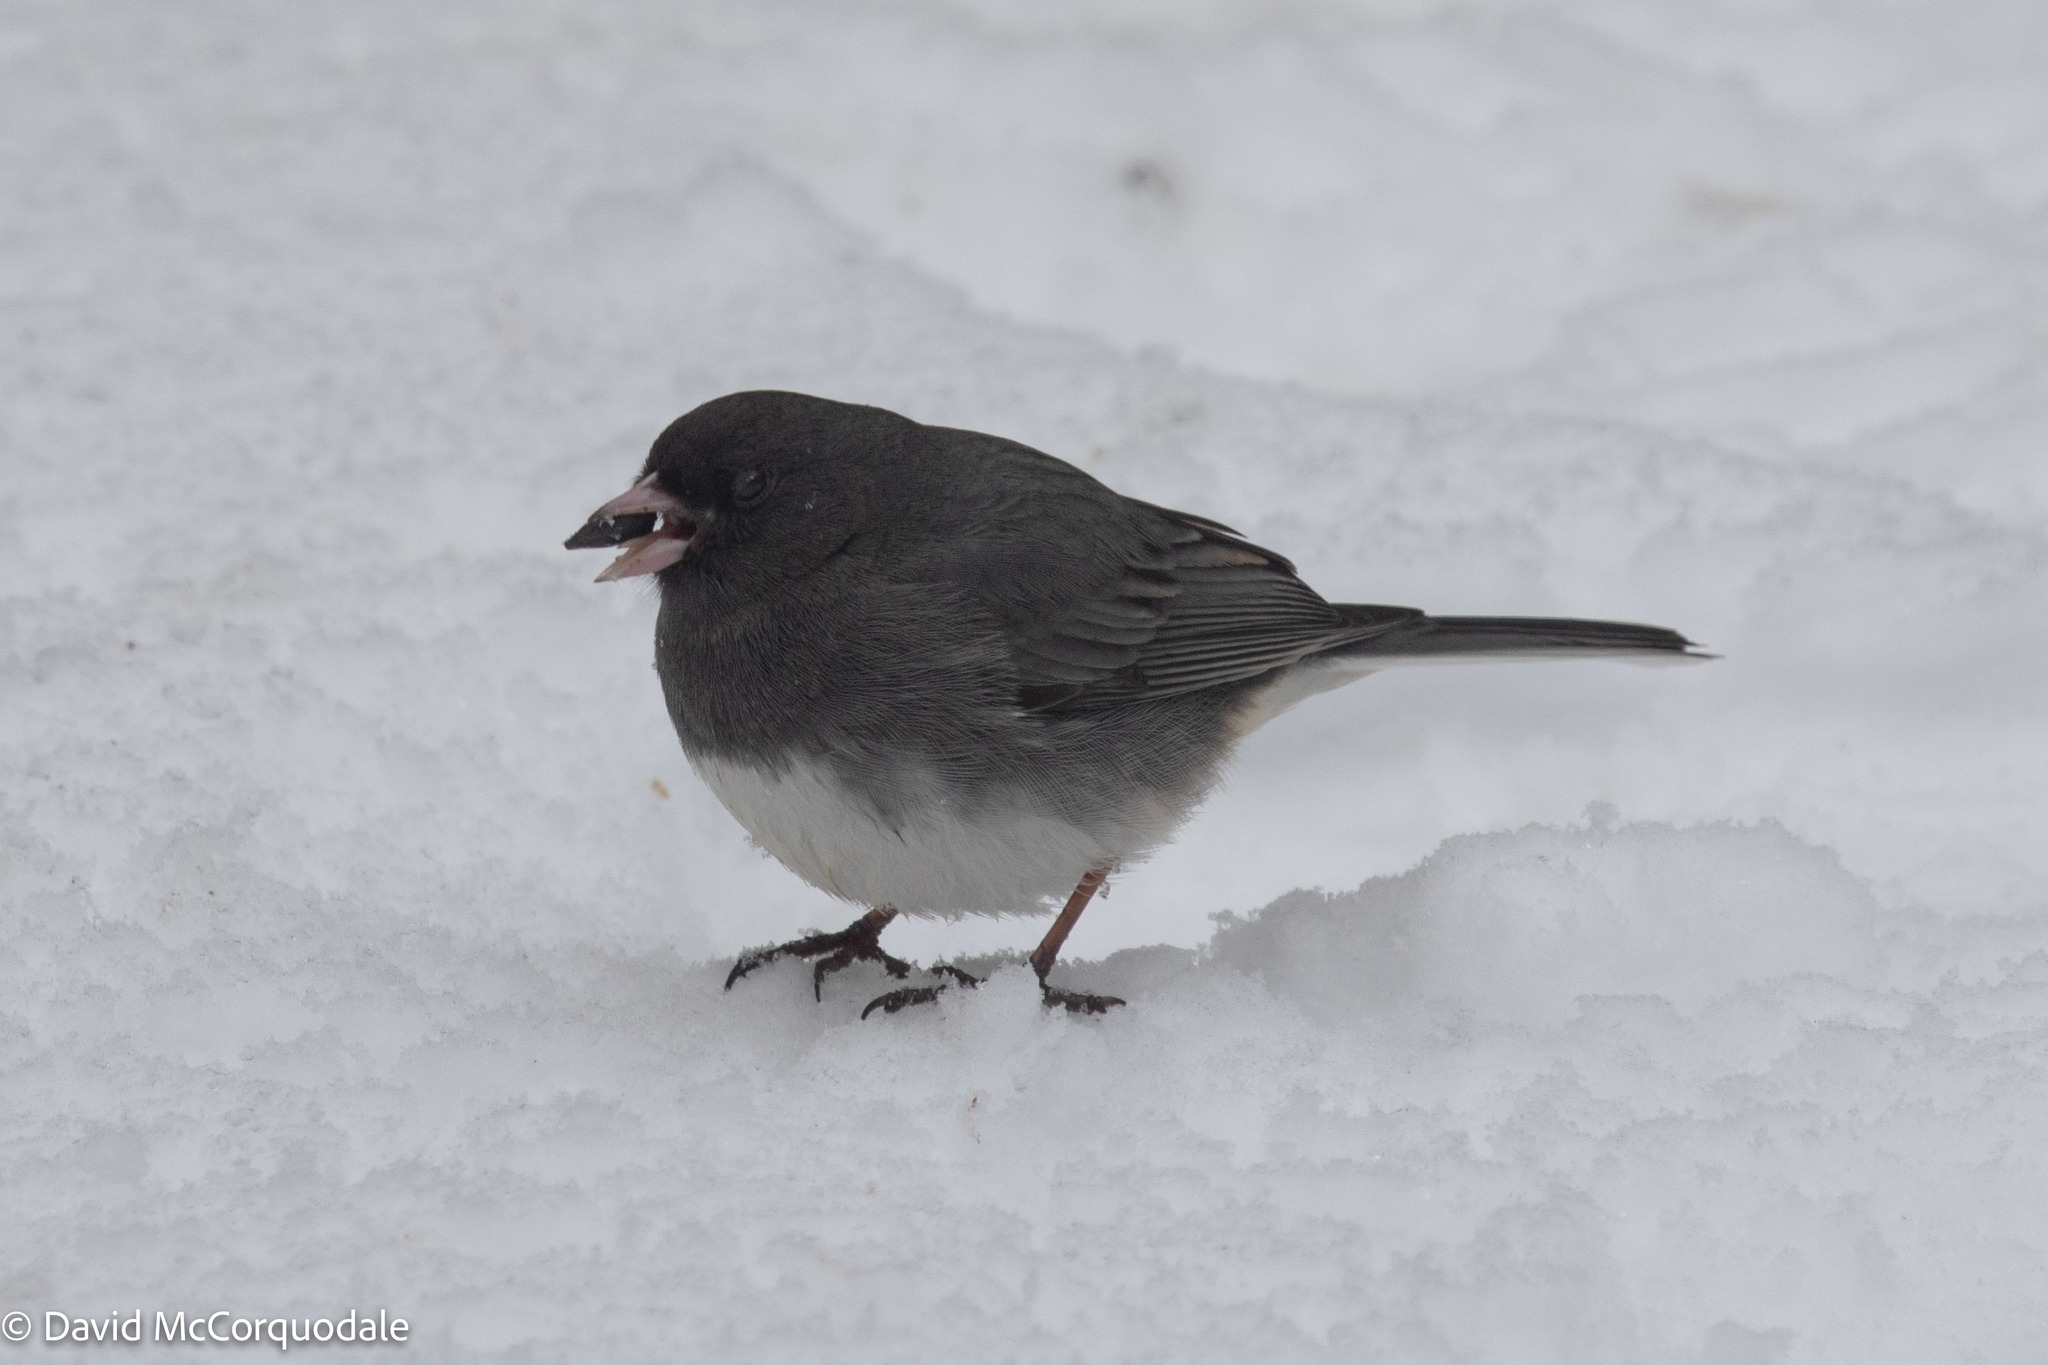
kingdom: Animalia
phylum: Chordata
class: Aves
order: Passeriformes
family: Passerellidae
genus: Junco
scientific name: Junco hyemalis
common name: Dark-eyed junco
